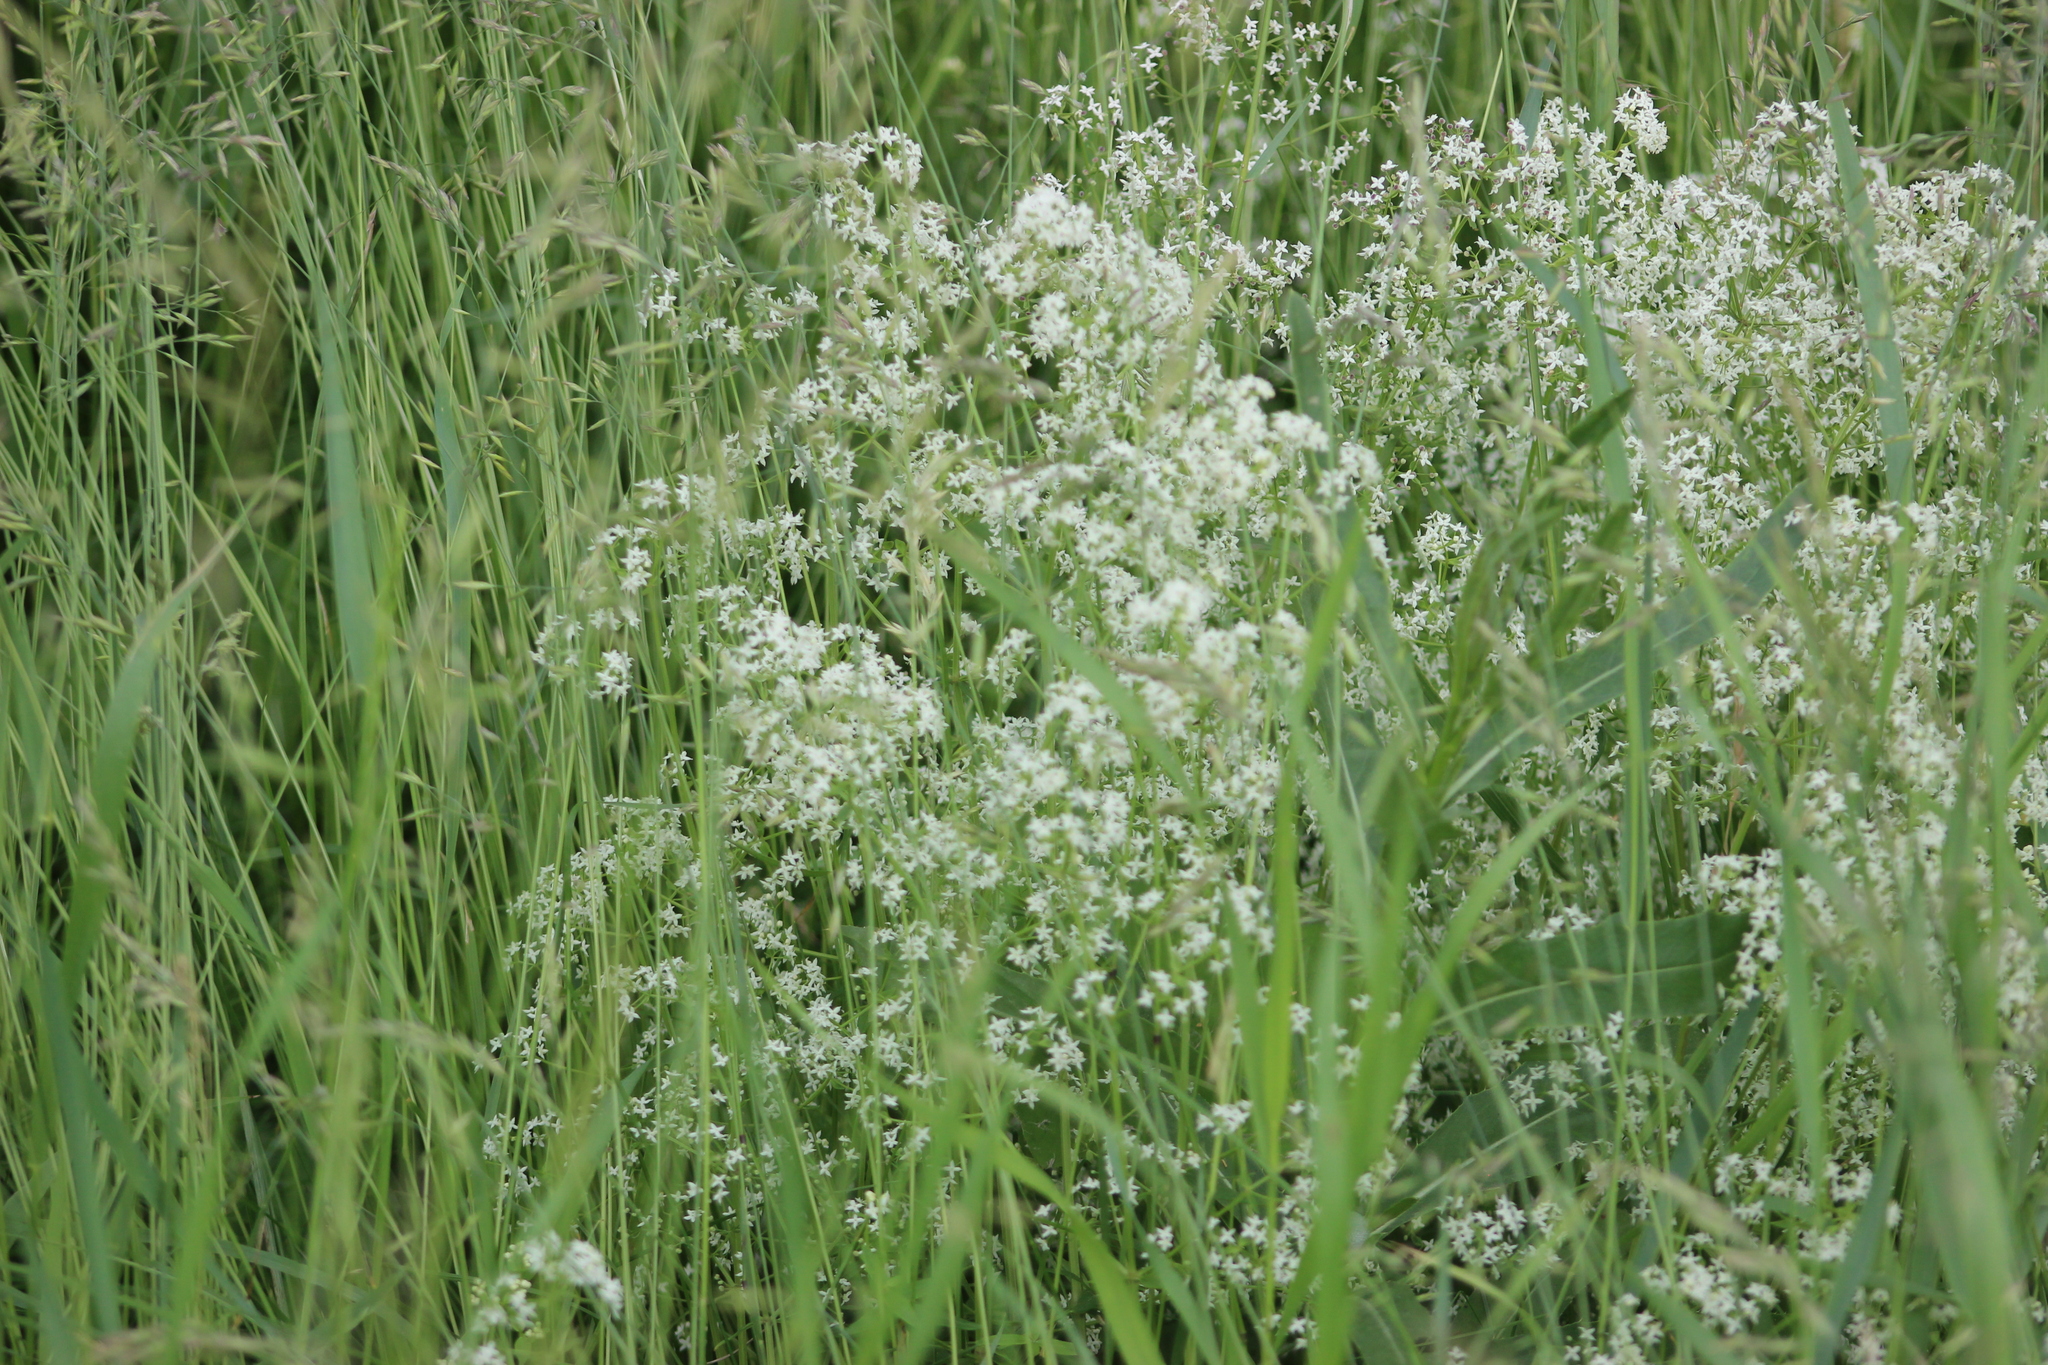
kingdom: Plantae
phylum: Tracheophyta
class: Magnoliopsida
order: Gentianales
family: Rubiaceae
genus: Galium
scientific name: Galium mollugo
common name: Hedge bedstraw
